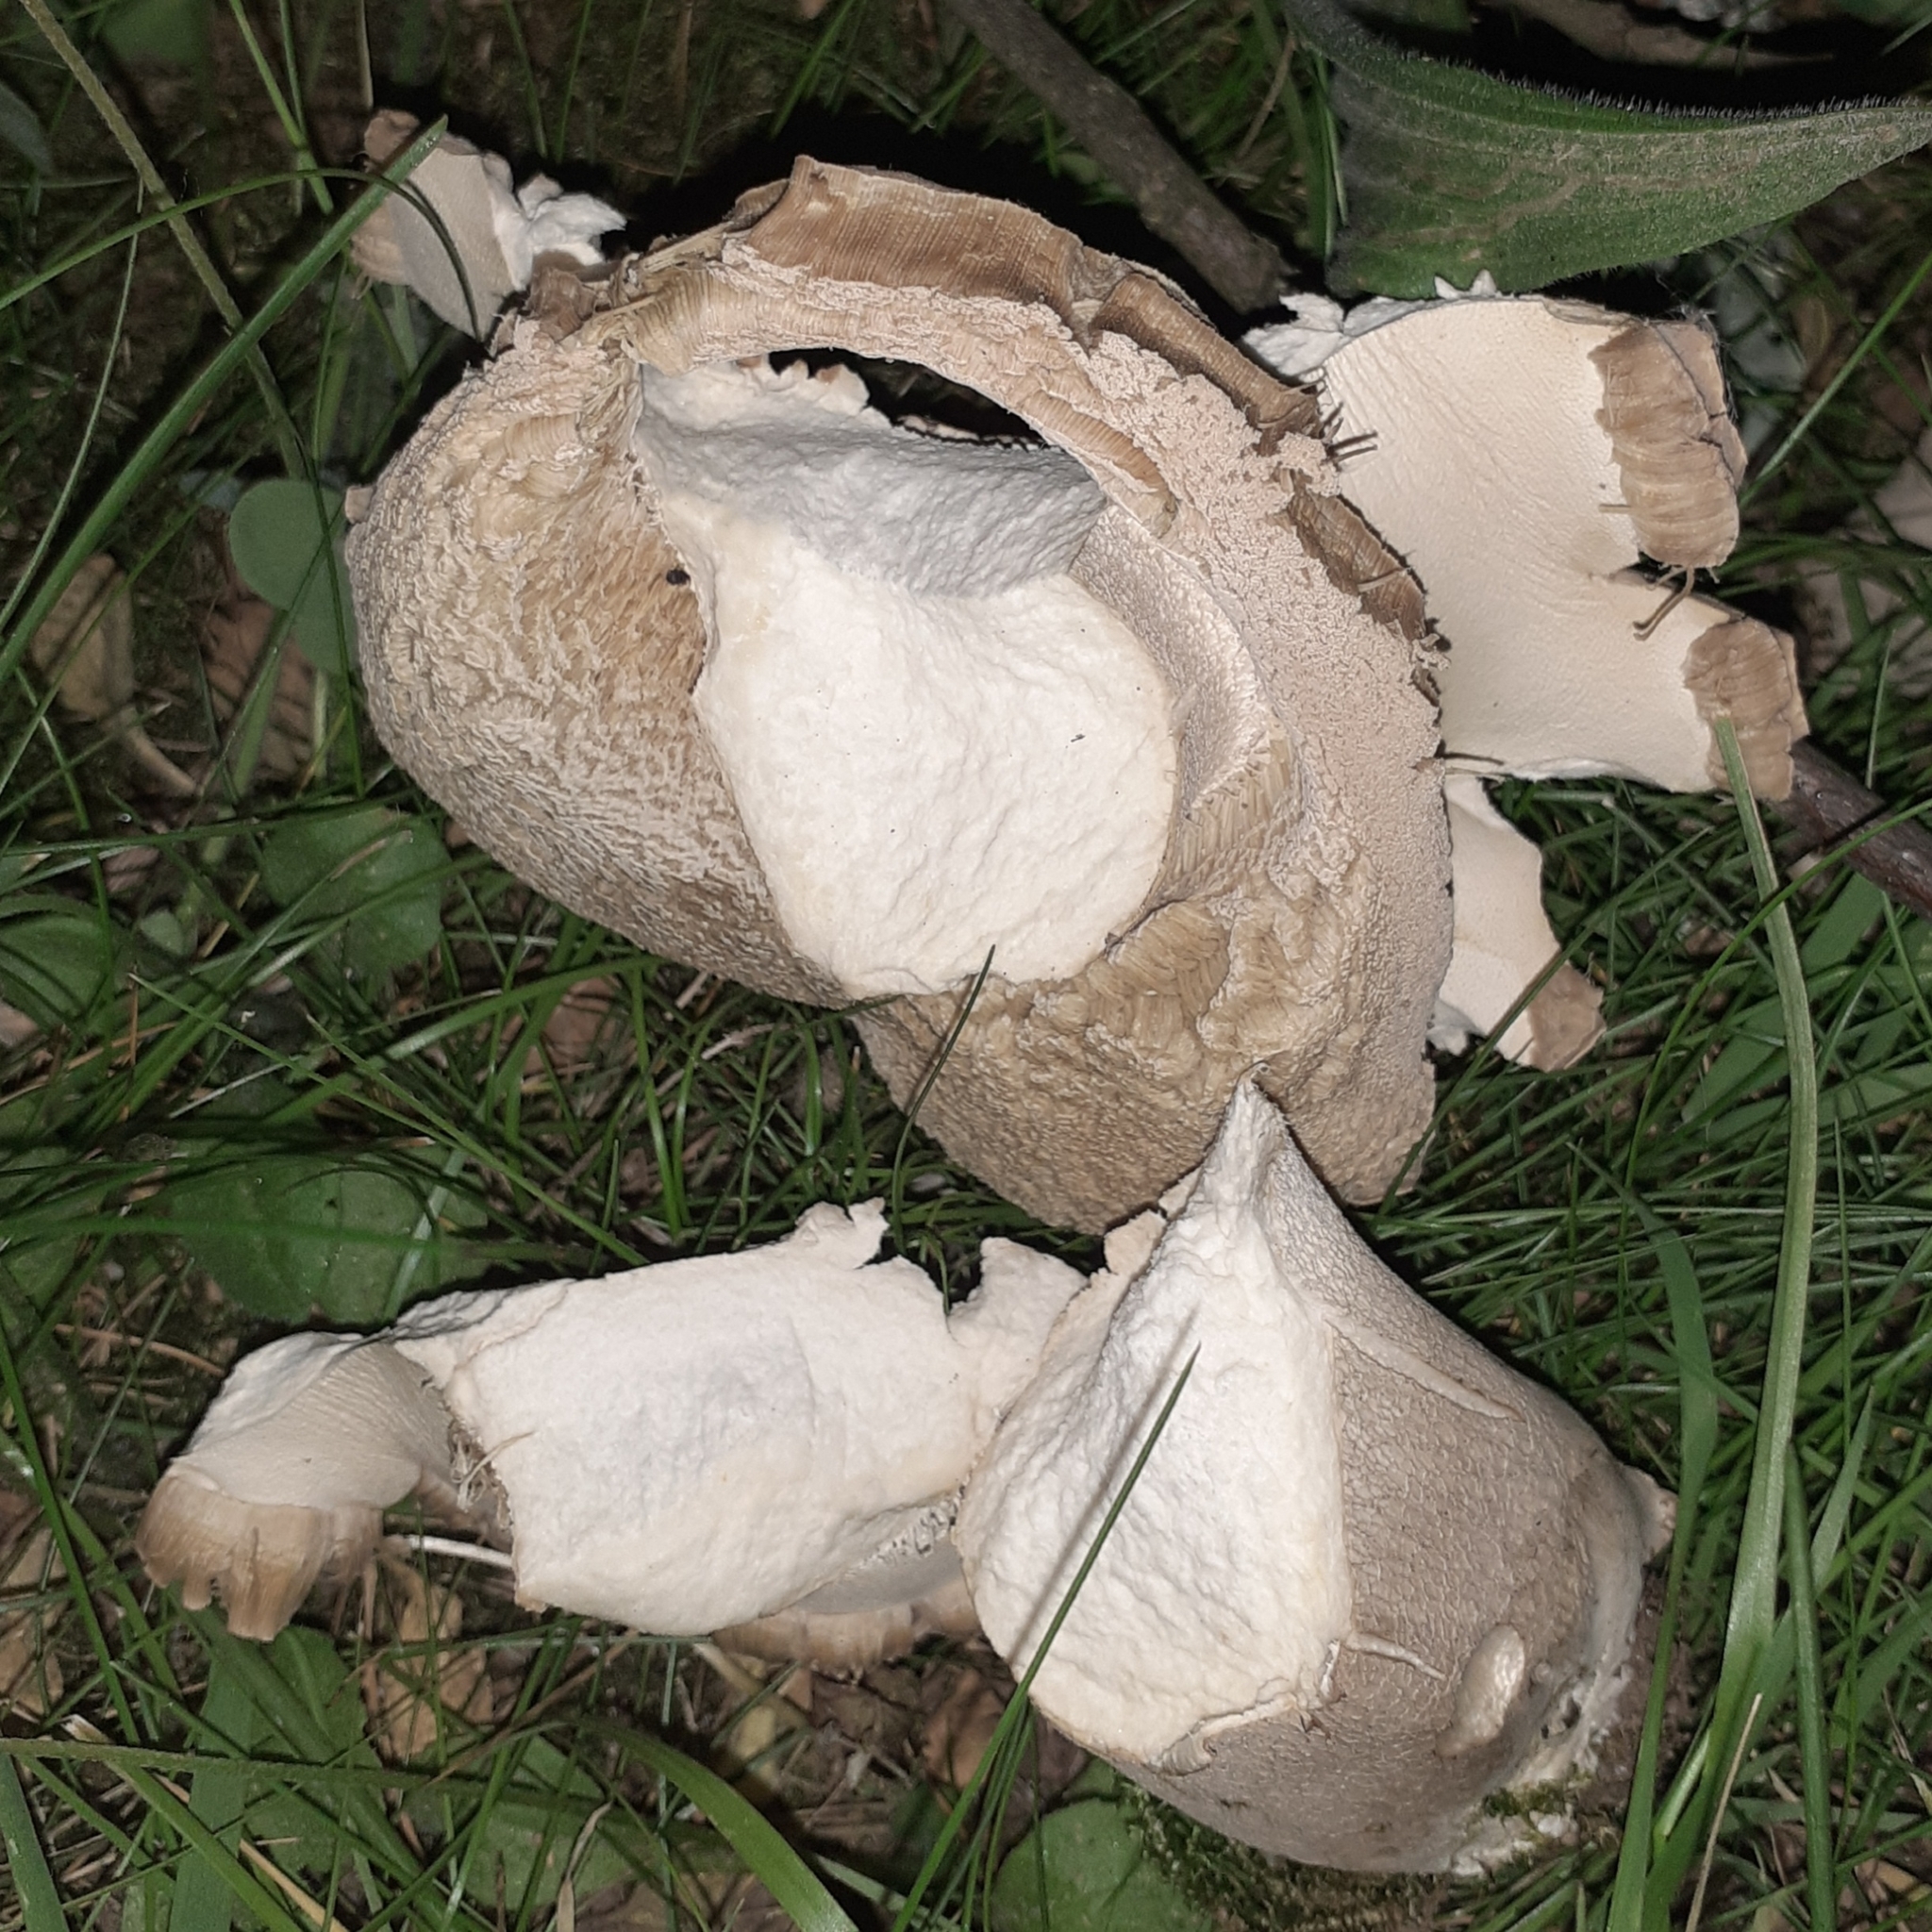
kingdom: Fungi
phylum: Basidiomycota
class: Agaricomycetes
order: Boletales
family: Boletaceae
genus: Boletus
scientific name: Boletus reticulatus
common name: Summer bolete
